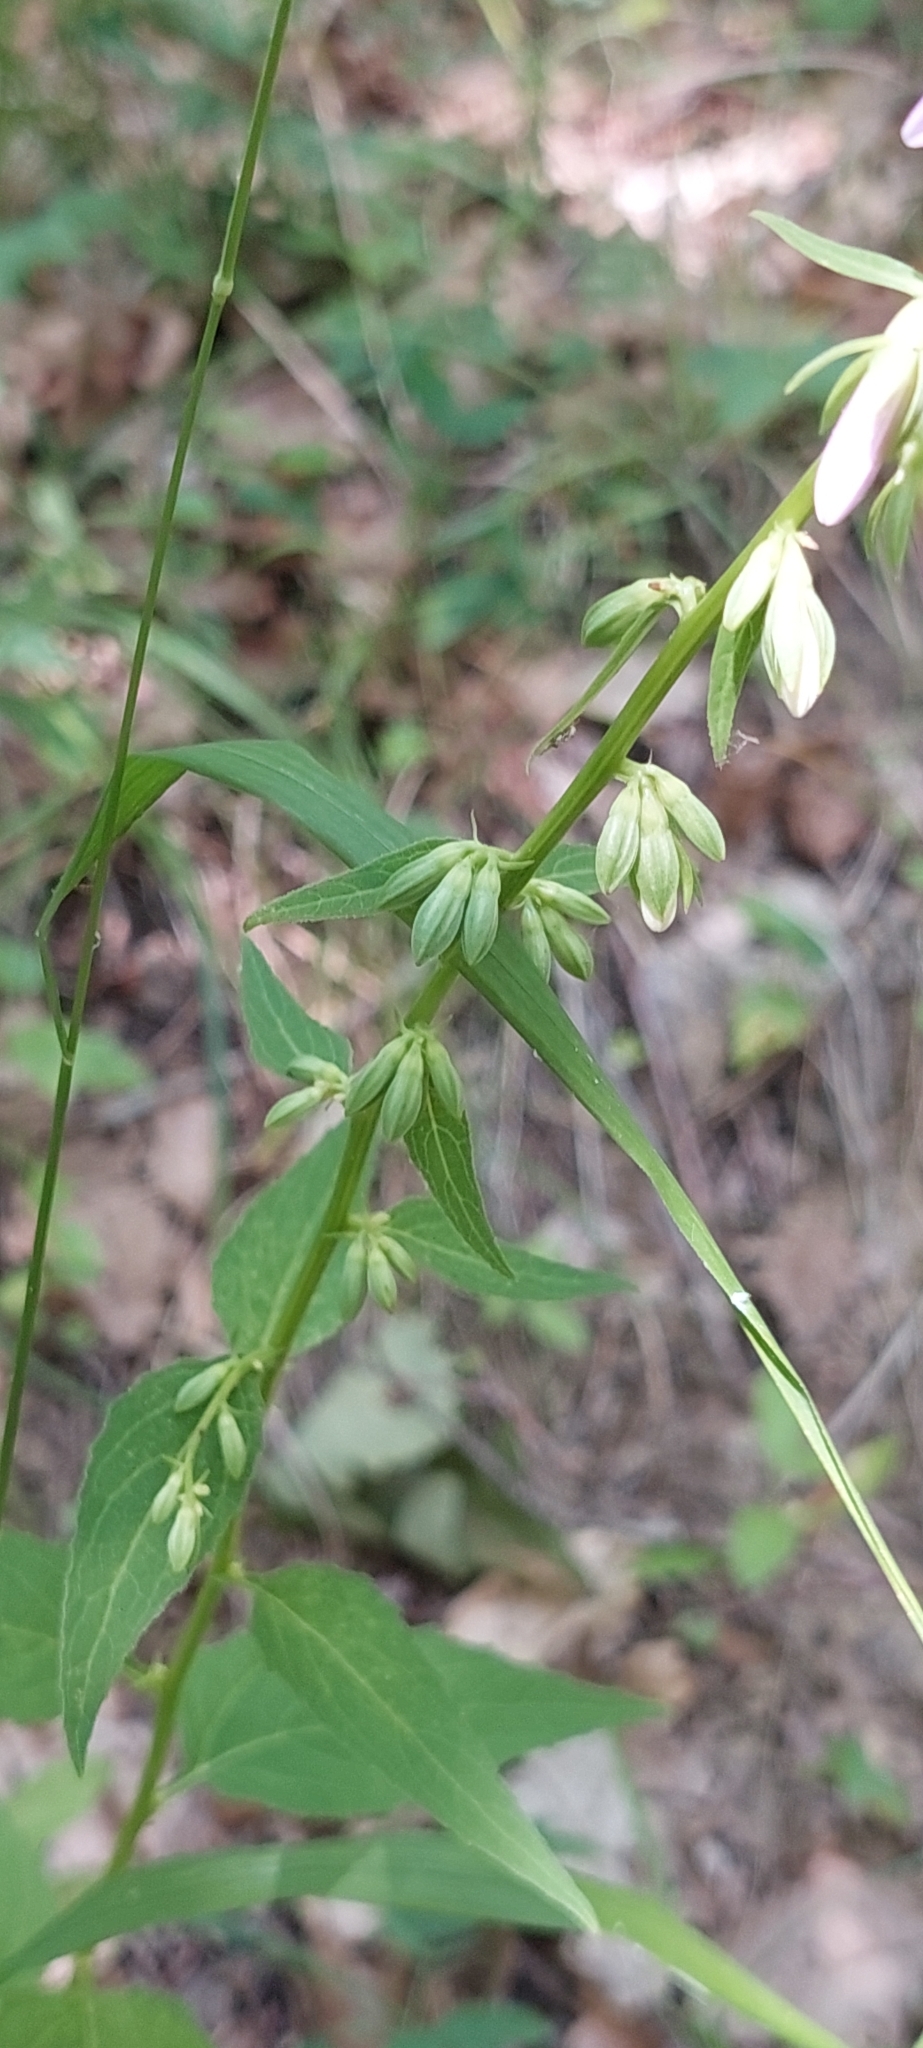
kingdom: Plantae
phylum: Tracheophyta
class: Magnoliopsida
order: Asterales
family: Campanulaceae
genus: Campanula
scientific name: Campanula rapunculoides
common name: Creeping bellflower
